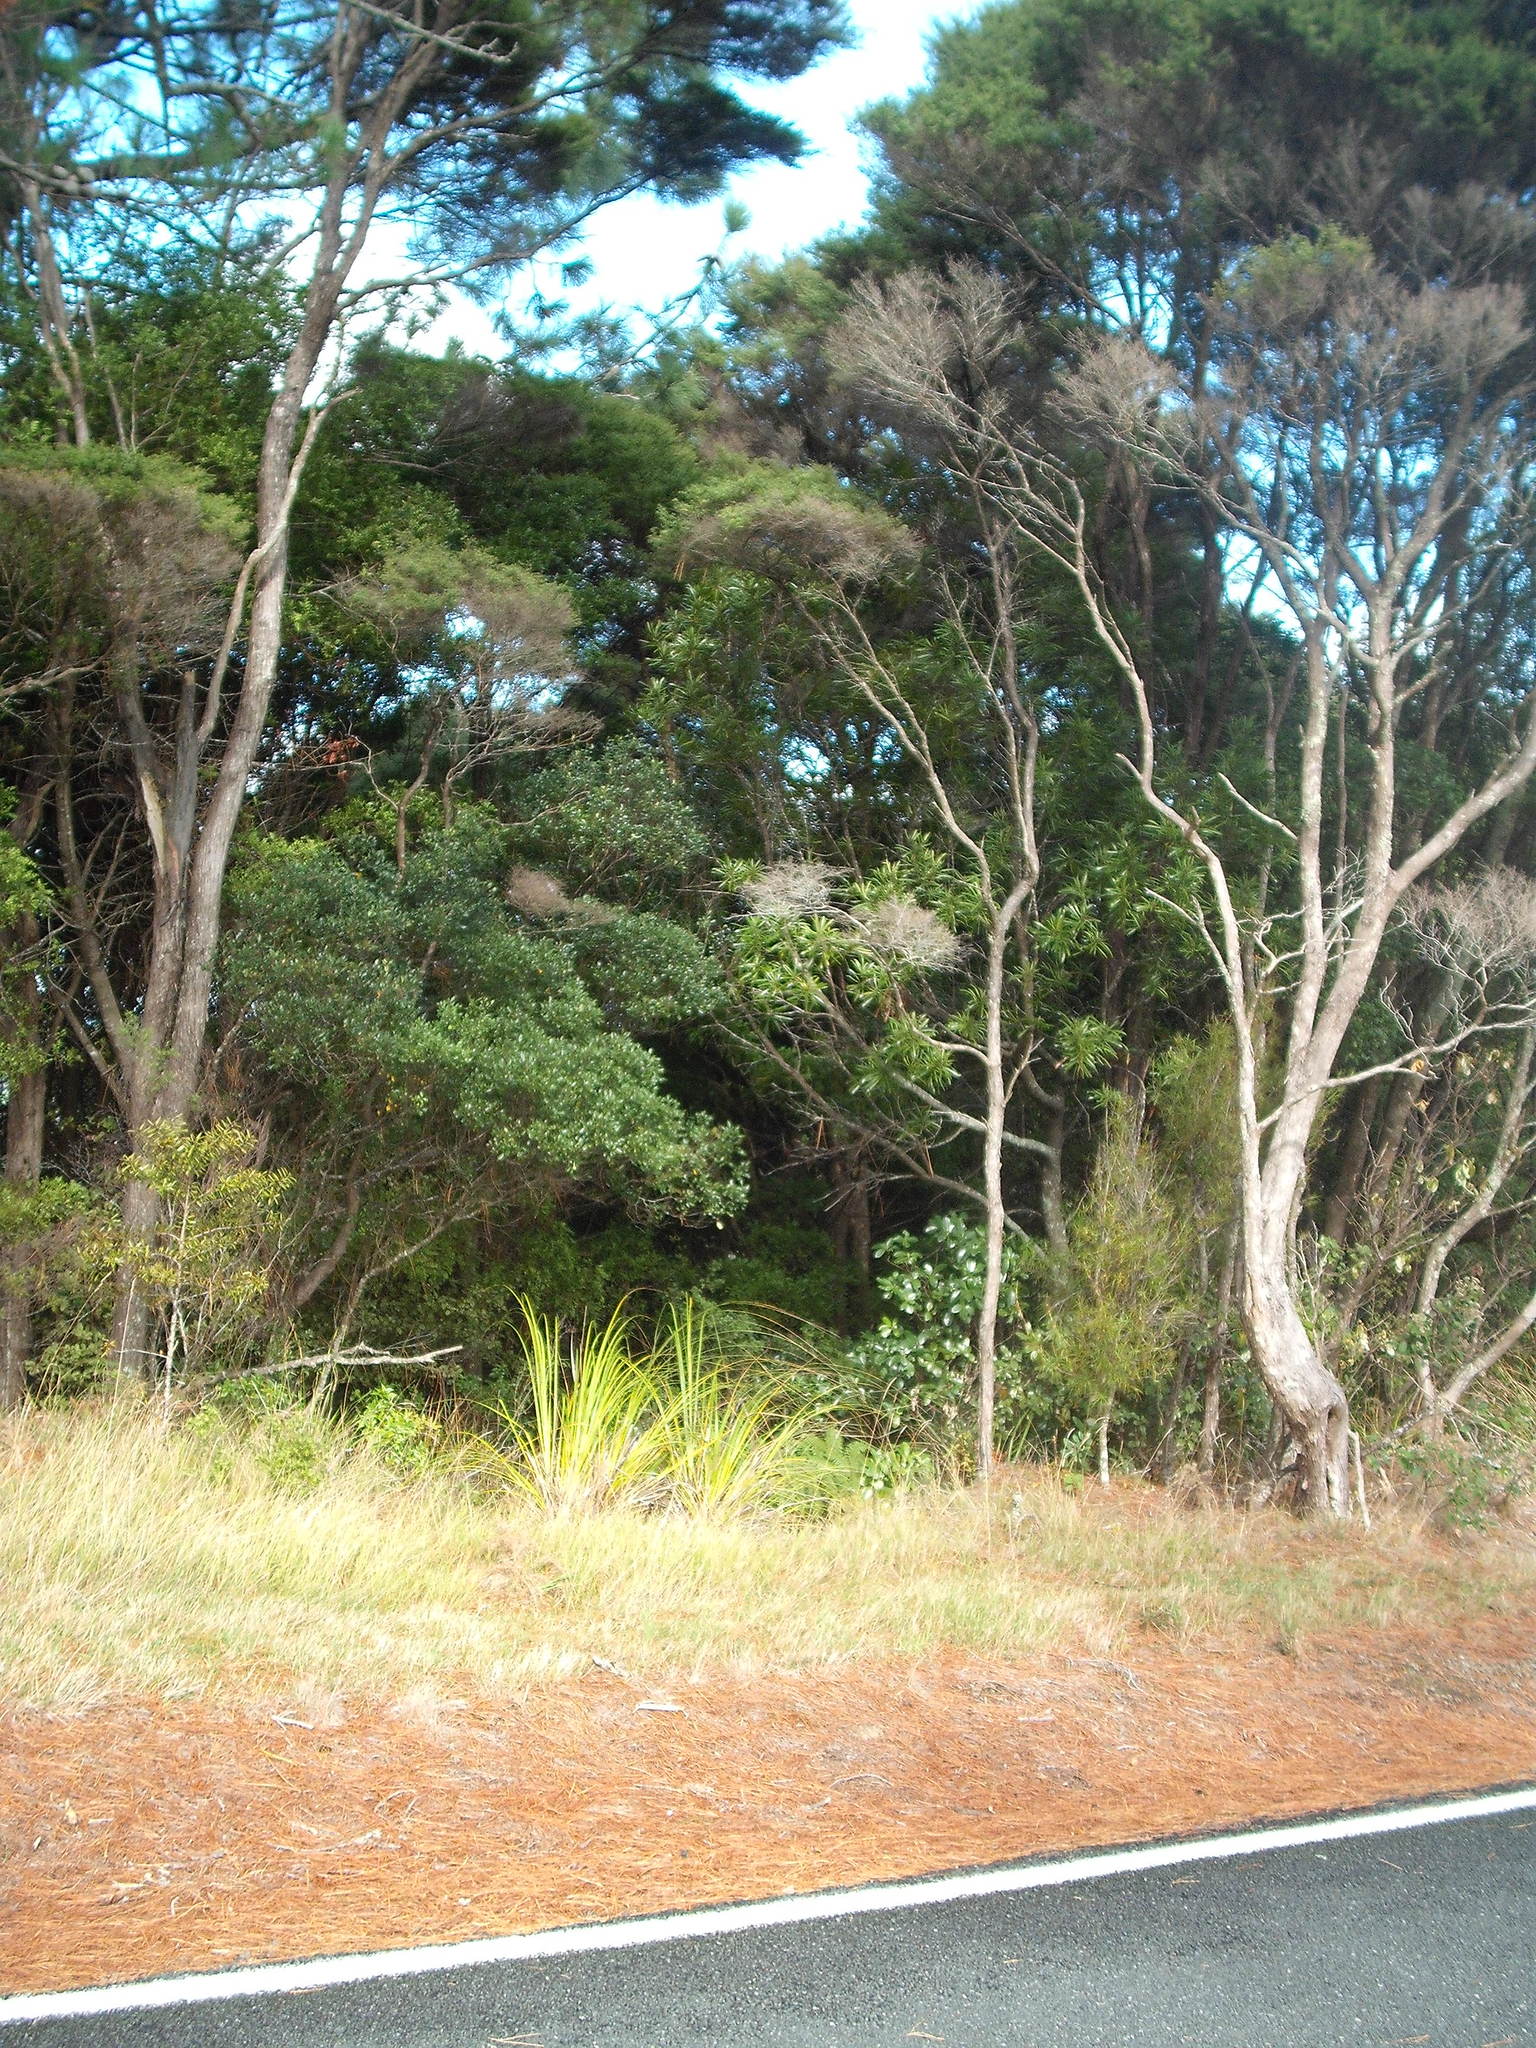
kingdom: Plantae
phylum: Tracheophyta
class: Magnoliopsida
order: Proteales
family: Proteaceae
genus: Toronia
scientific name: Toronia toru
